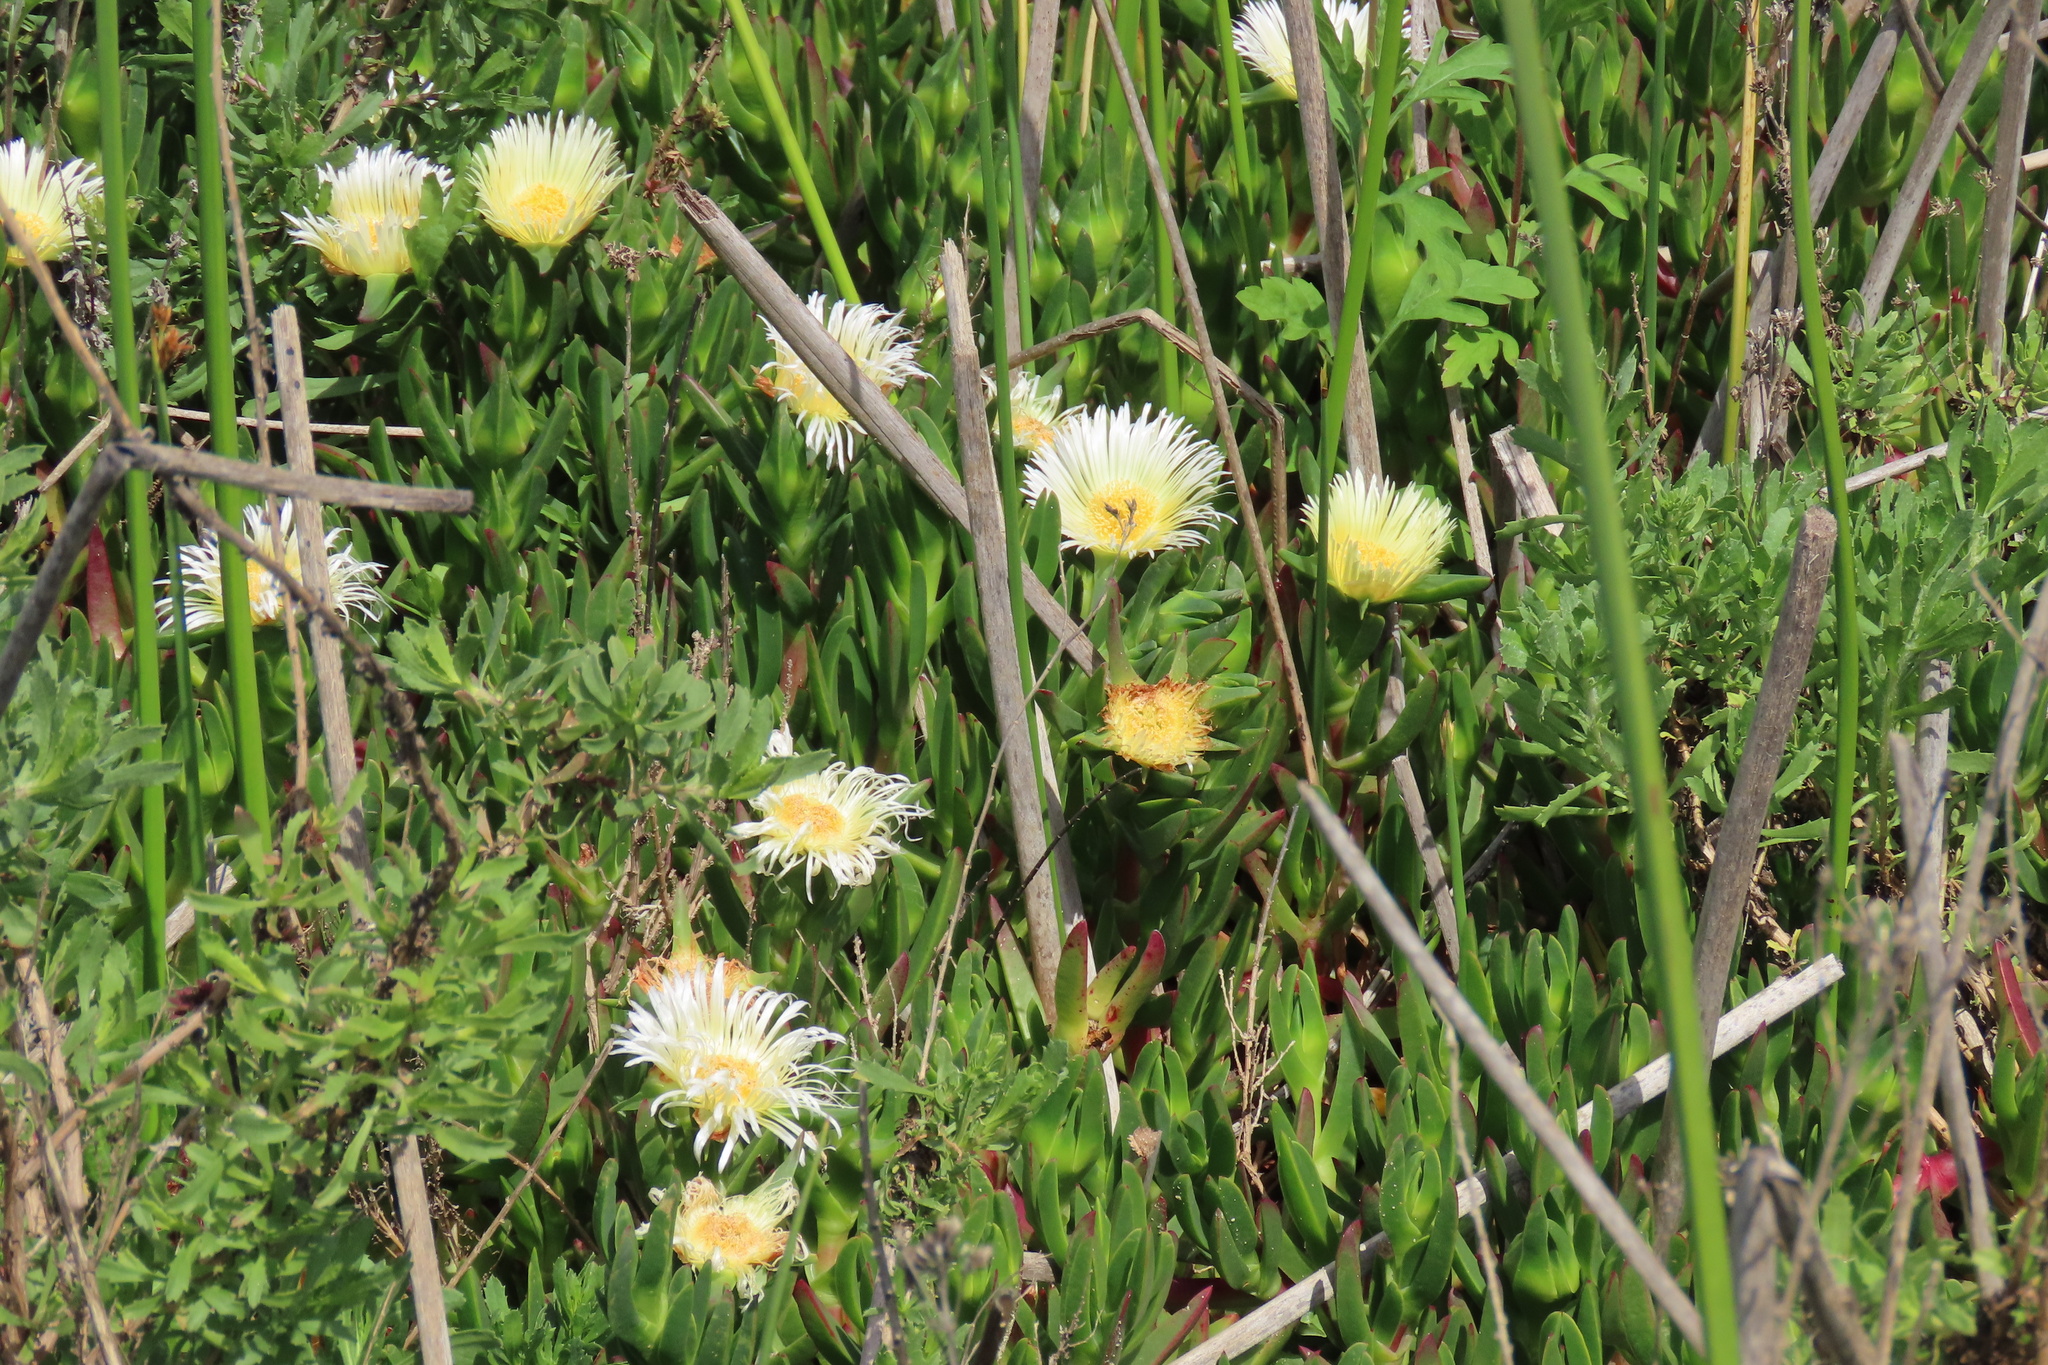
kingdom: Plantae
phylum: Tracheophyta
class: Magnoliopsida
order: Caryophyllales
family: Aizoaceae
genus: Carpobrotus
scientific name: Carpobrotus edulis
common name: Hottentot-fig
